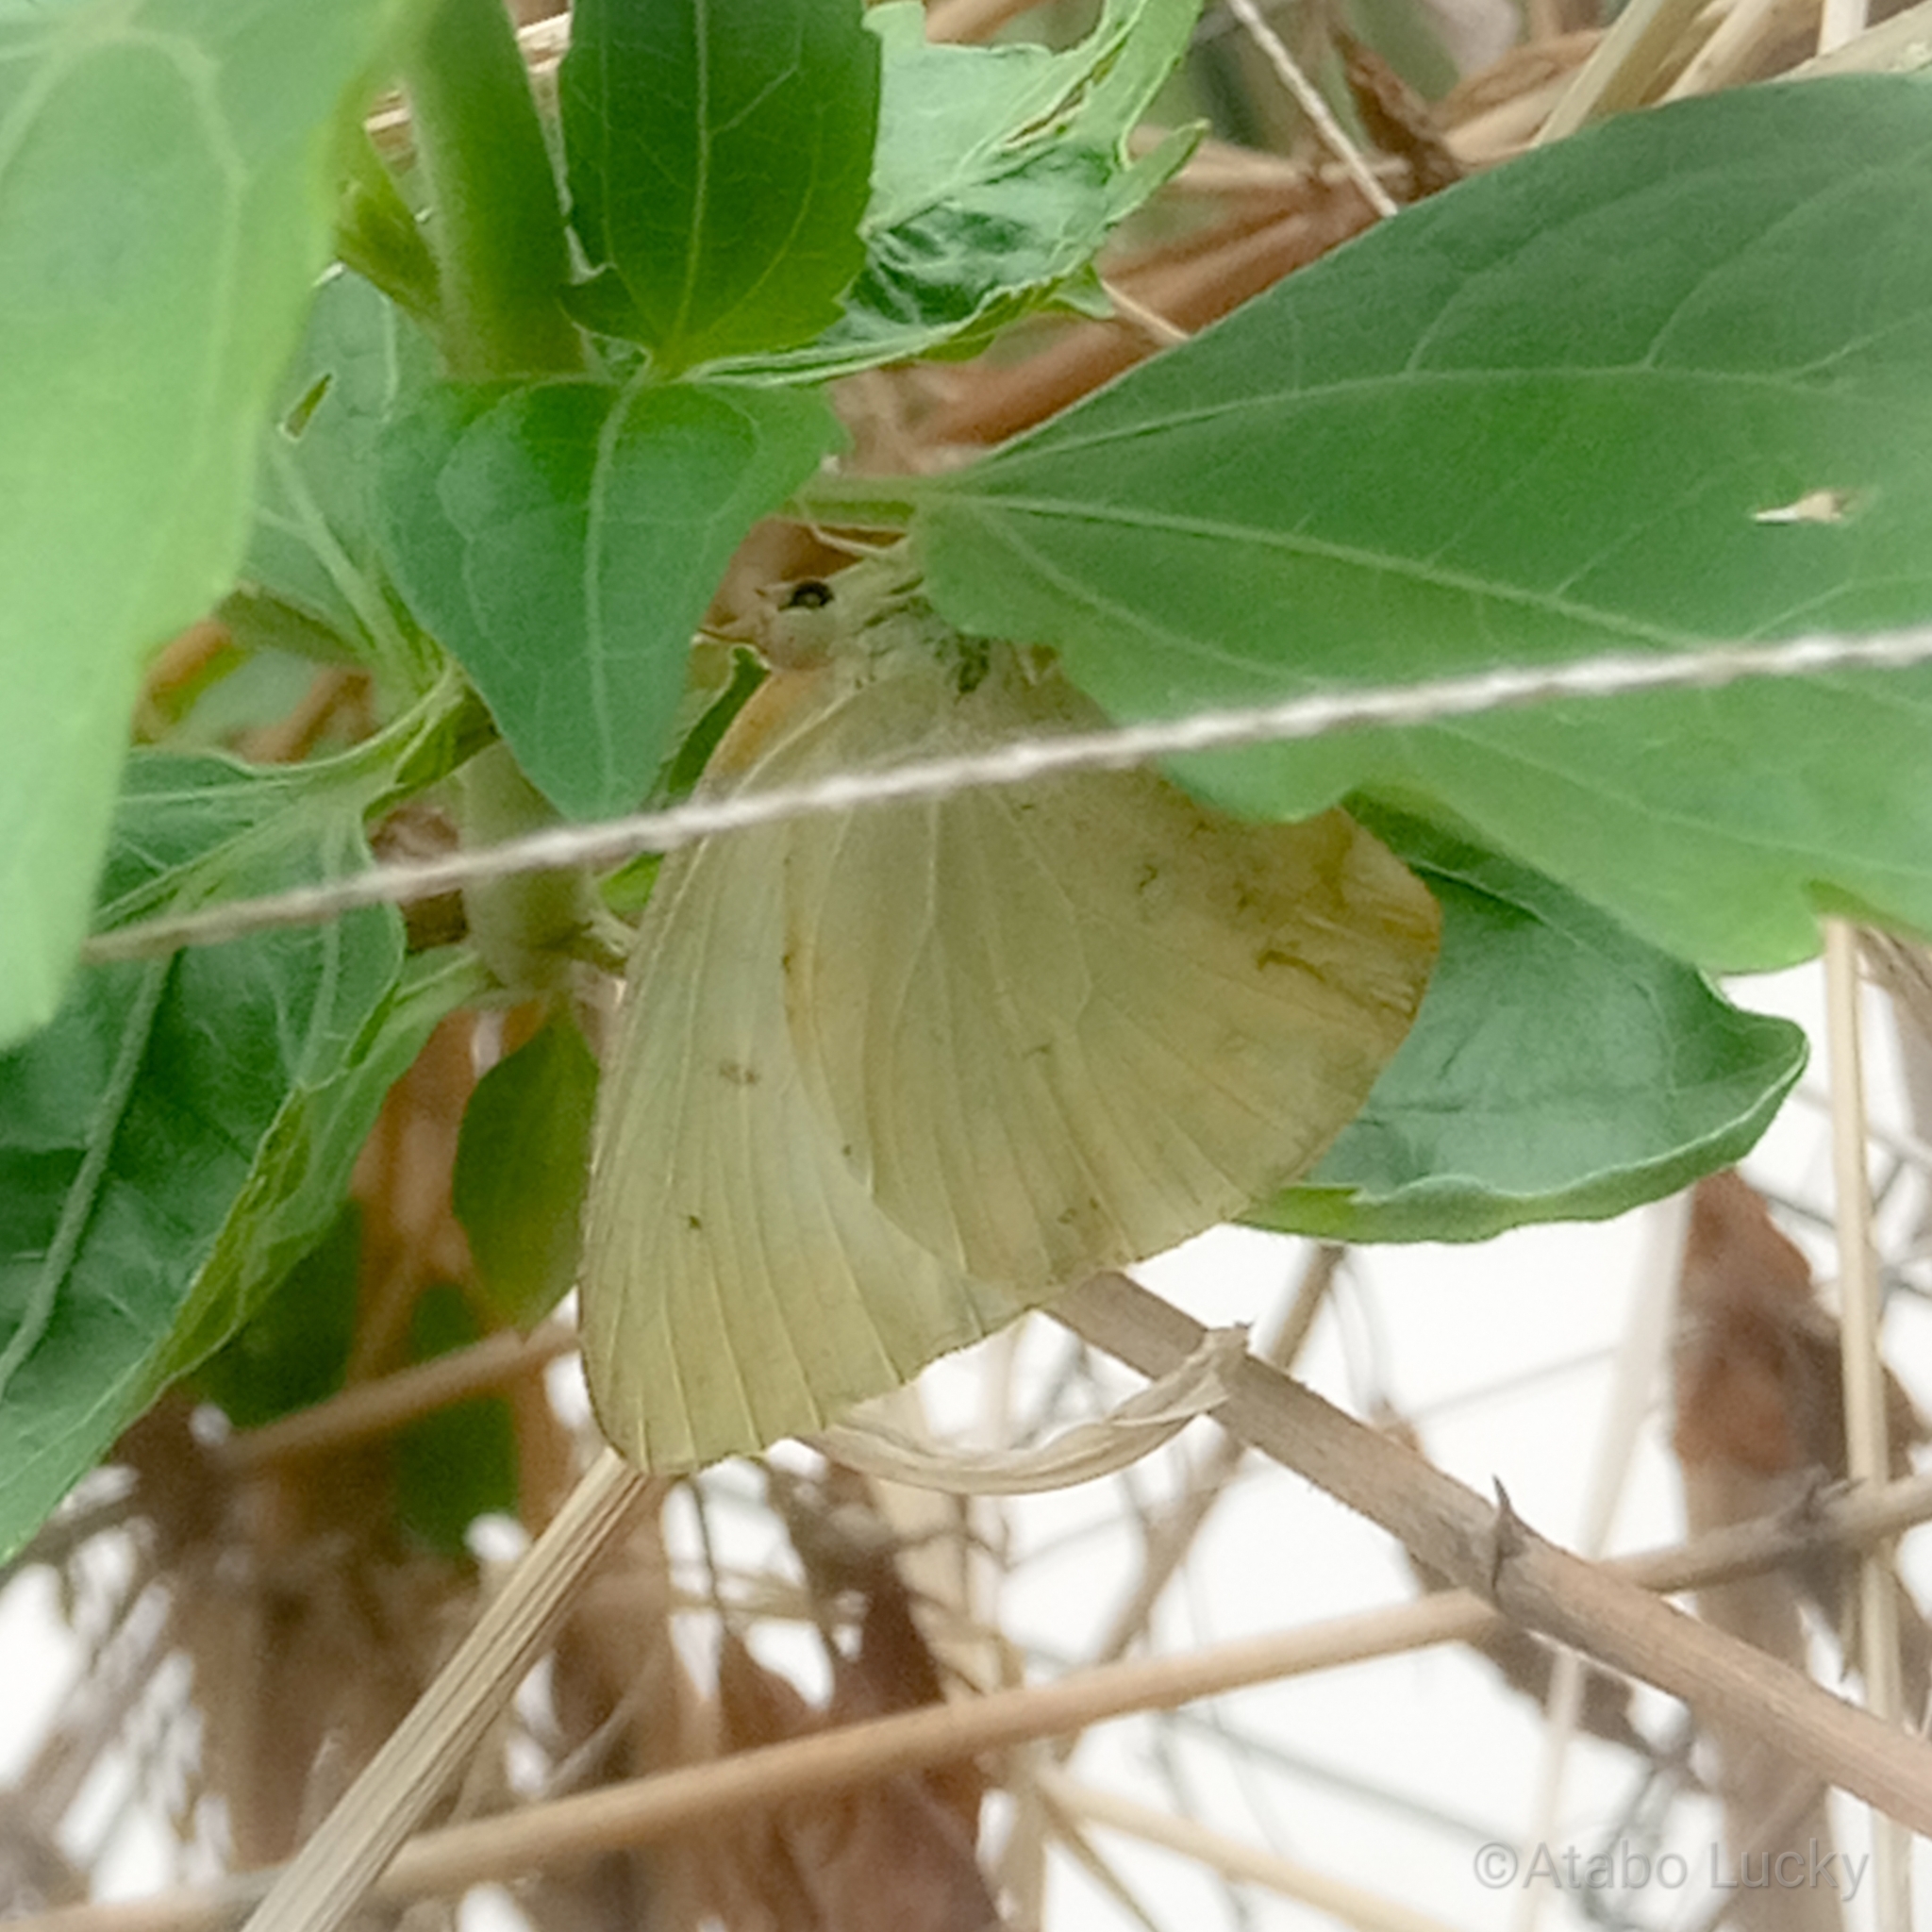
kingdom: Animalia
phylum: Arthropoda
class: Insecta
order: Lepidoptera
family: Pieridae
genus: Catopsilia
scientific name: Catopsilia florella
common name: African migrant
